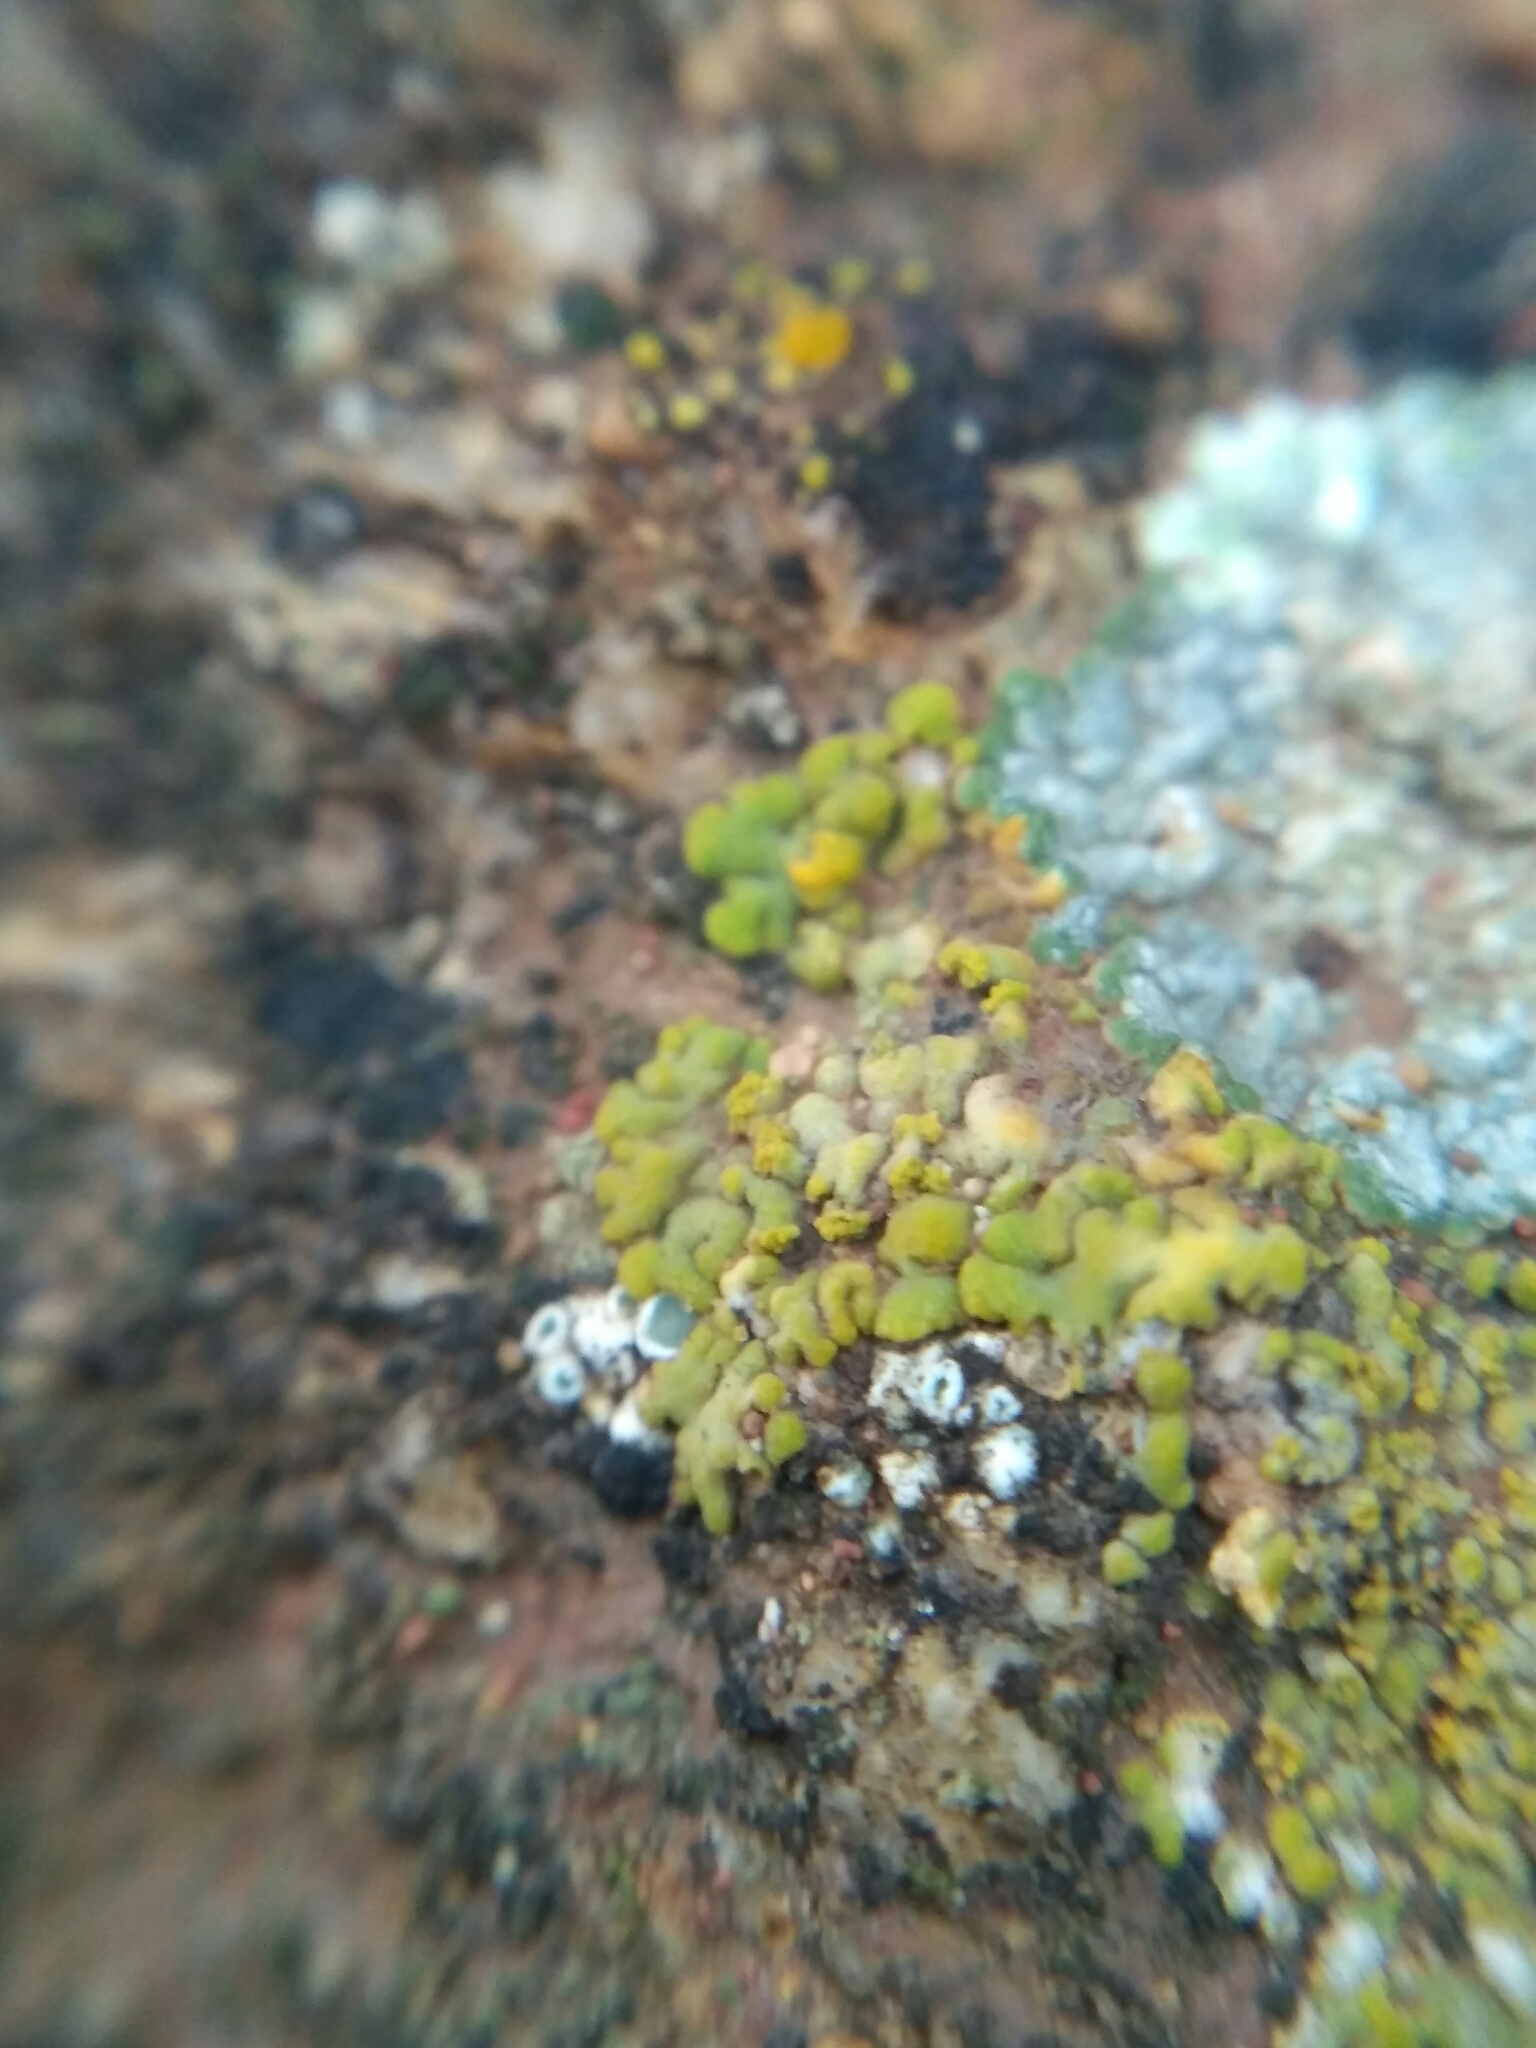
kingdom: Fungi
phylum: Ascomycota
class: Lecanoromycetes
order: Teloschistales
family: Teloschistaceae
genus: Calogaya
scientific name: Calogaya decipiens
